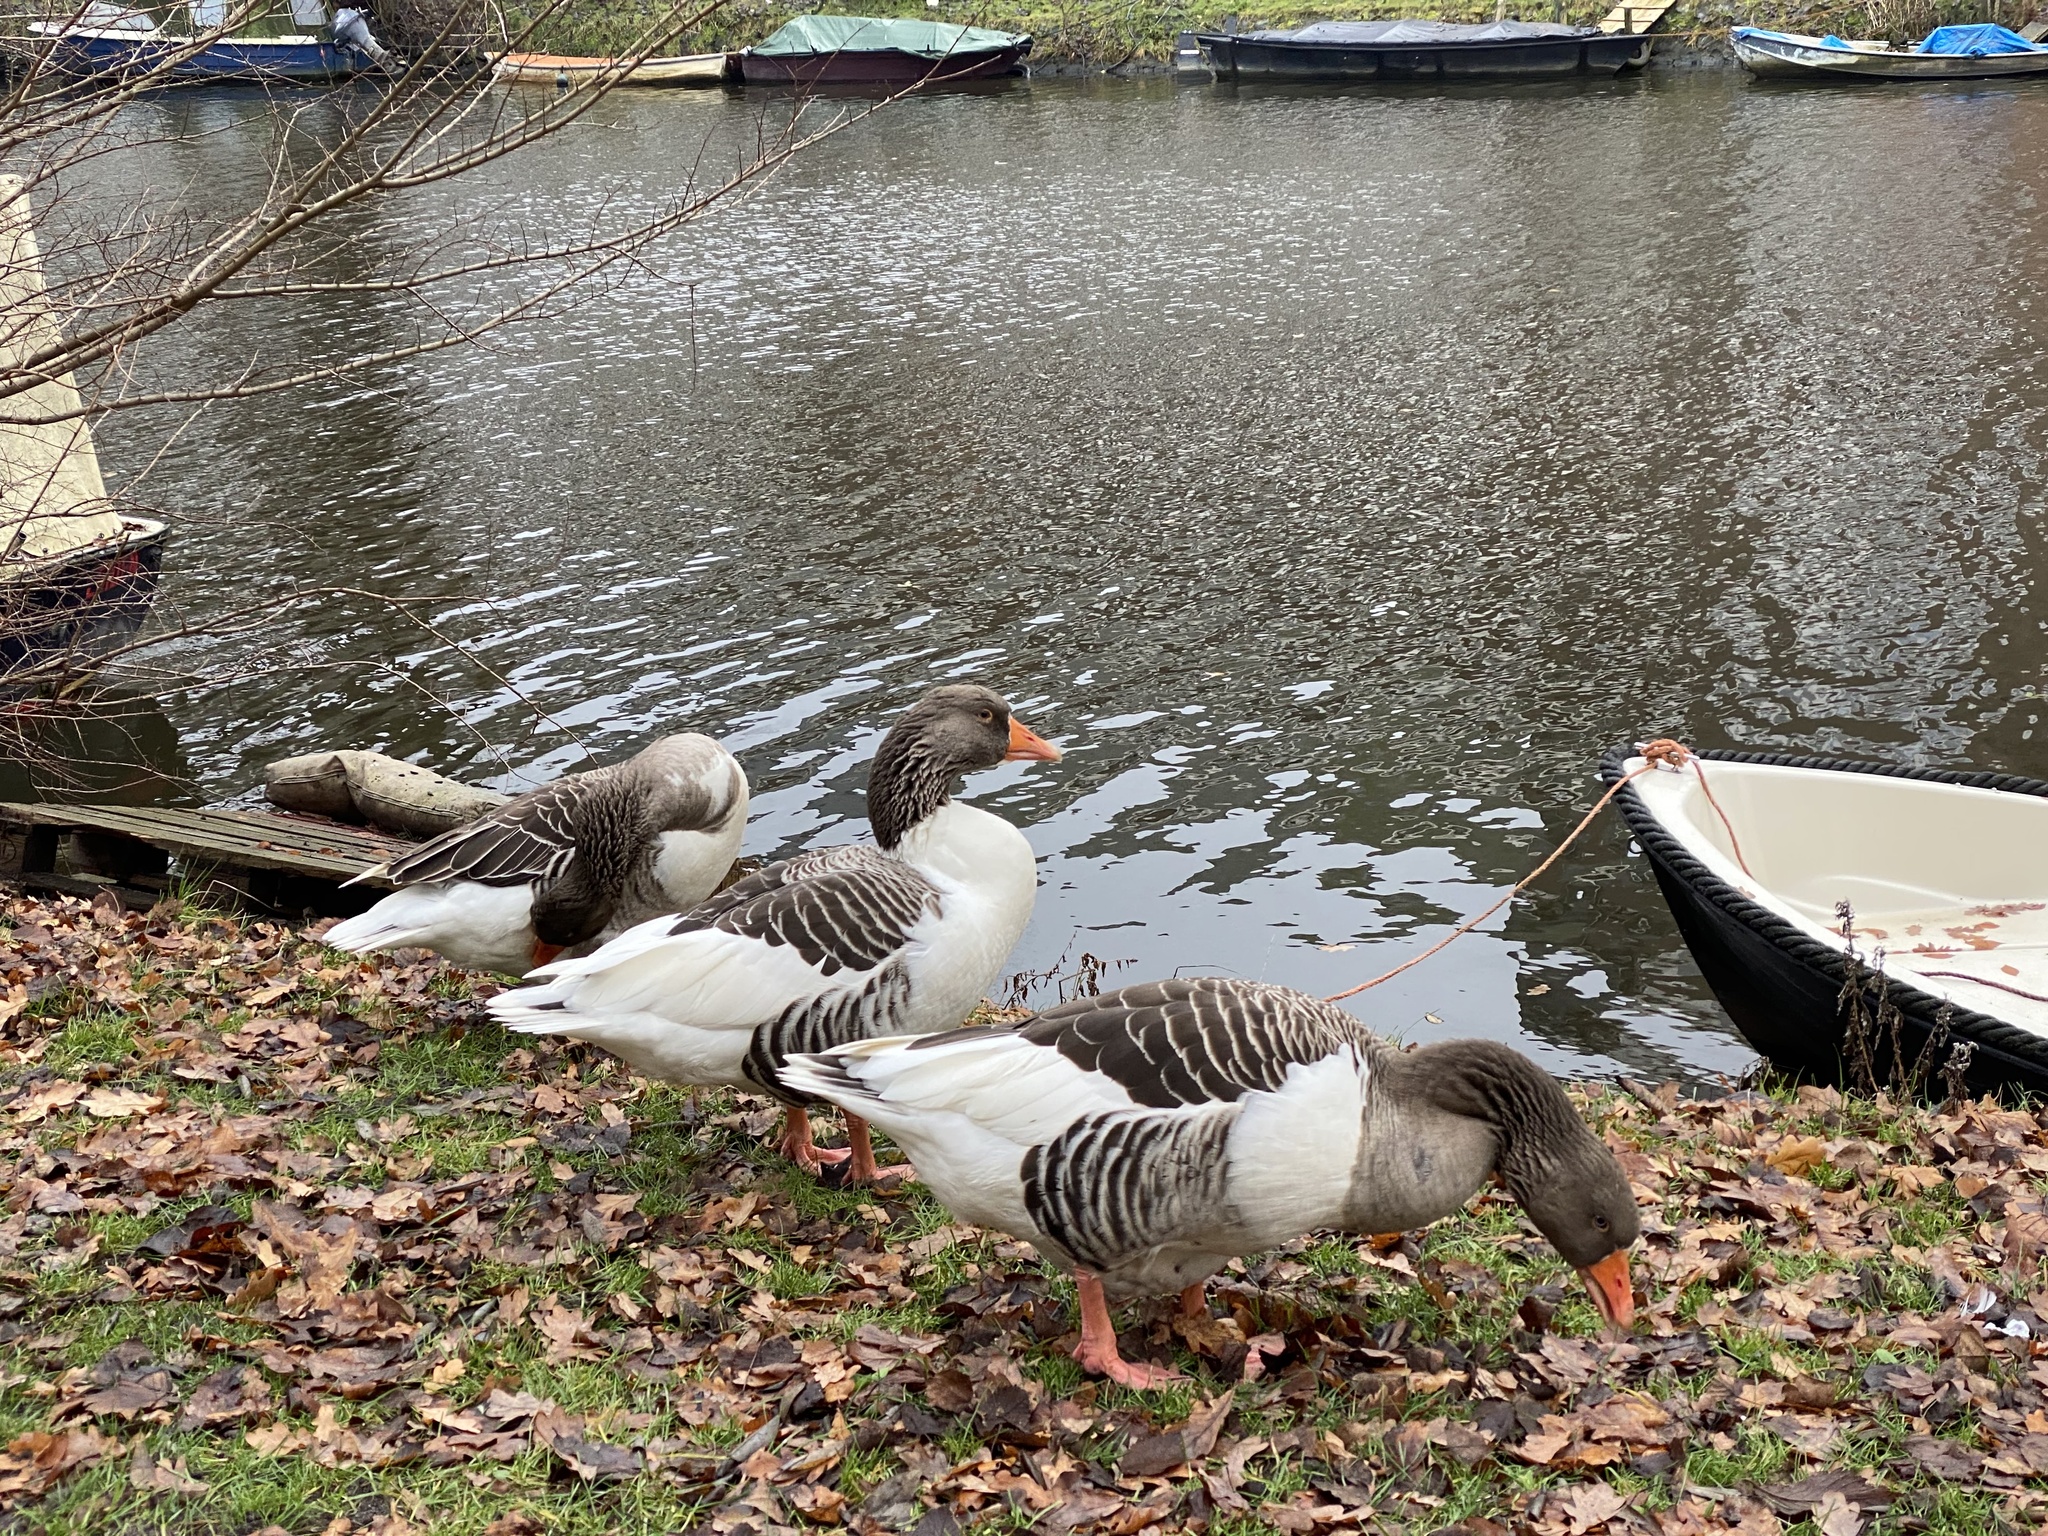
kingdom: Animalia
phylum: Chordata
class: Aves
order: Anseriformes
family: Anatidae
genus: Anser
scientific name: Anser anser
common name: Greylag goose
